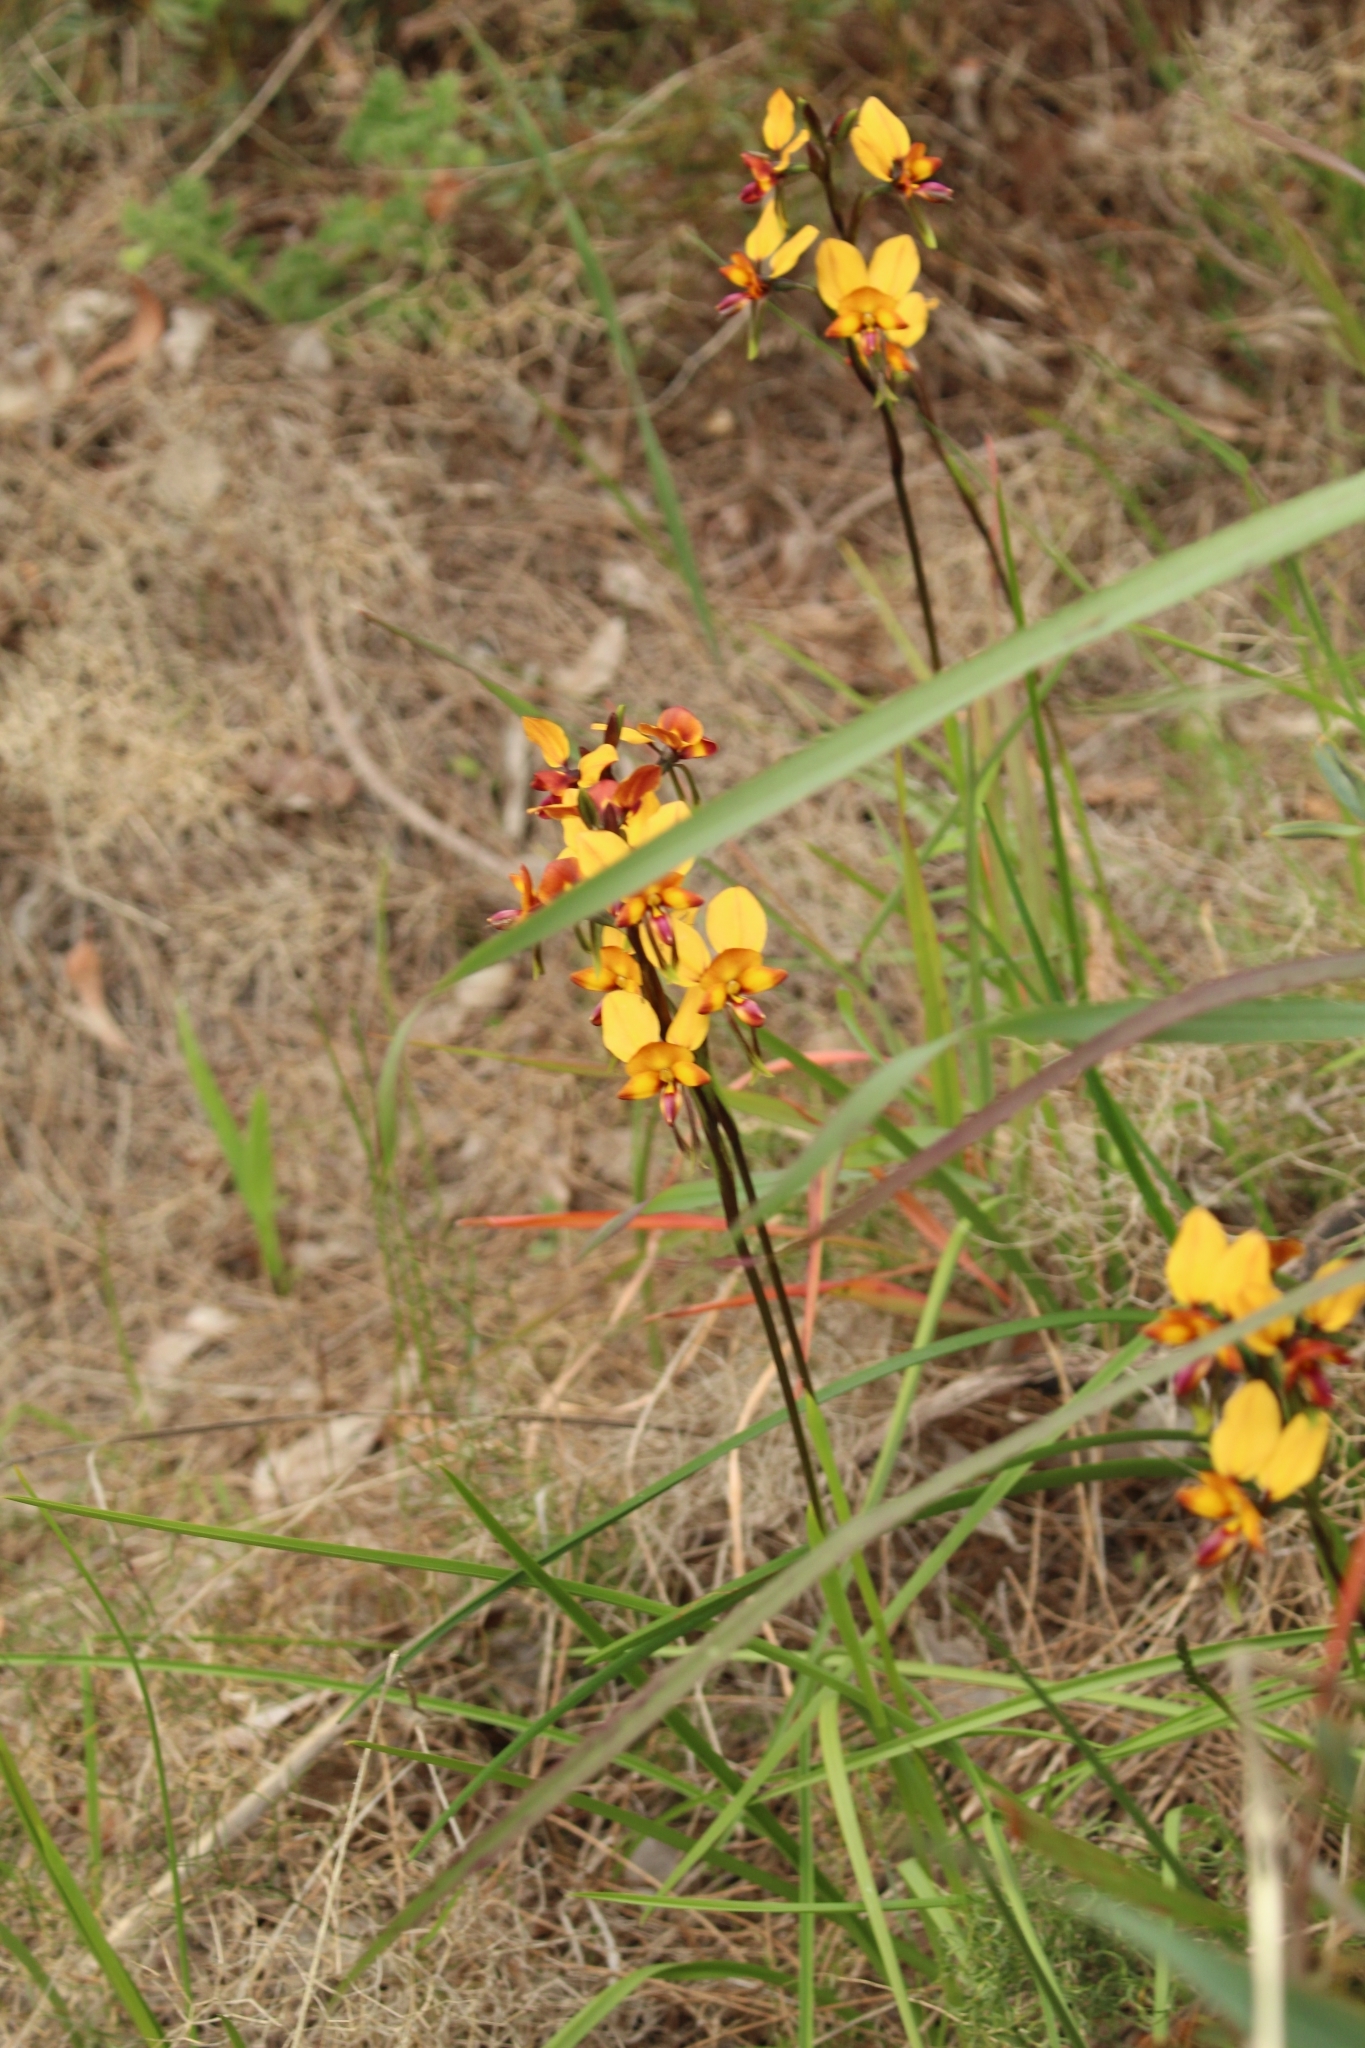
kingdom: Plantae
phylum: Tracheophyta
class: Liliopsida
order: Asparagales
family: Orchidaceae
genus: Diuris
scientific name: Diuris magnifica
